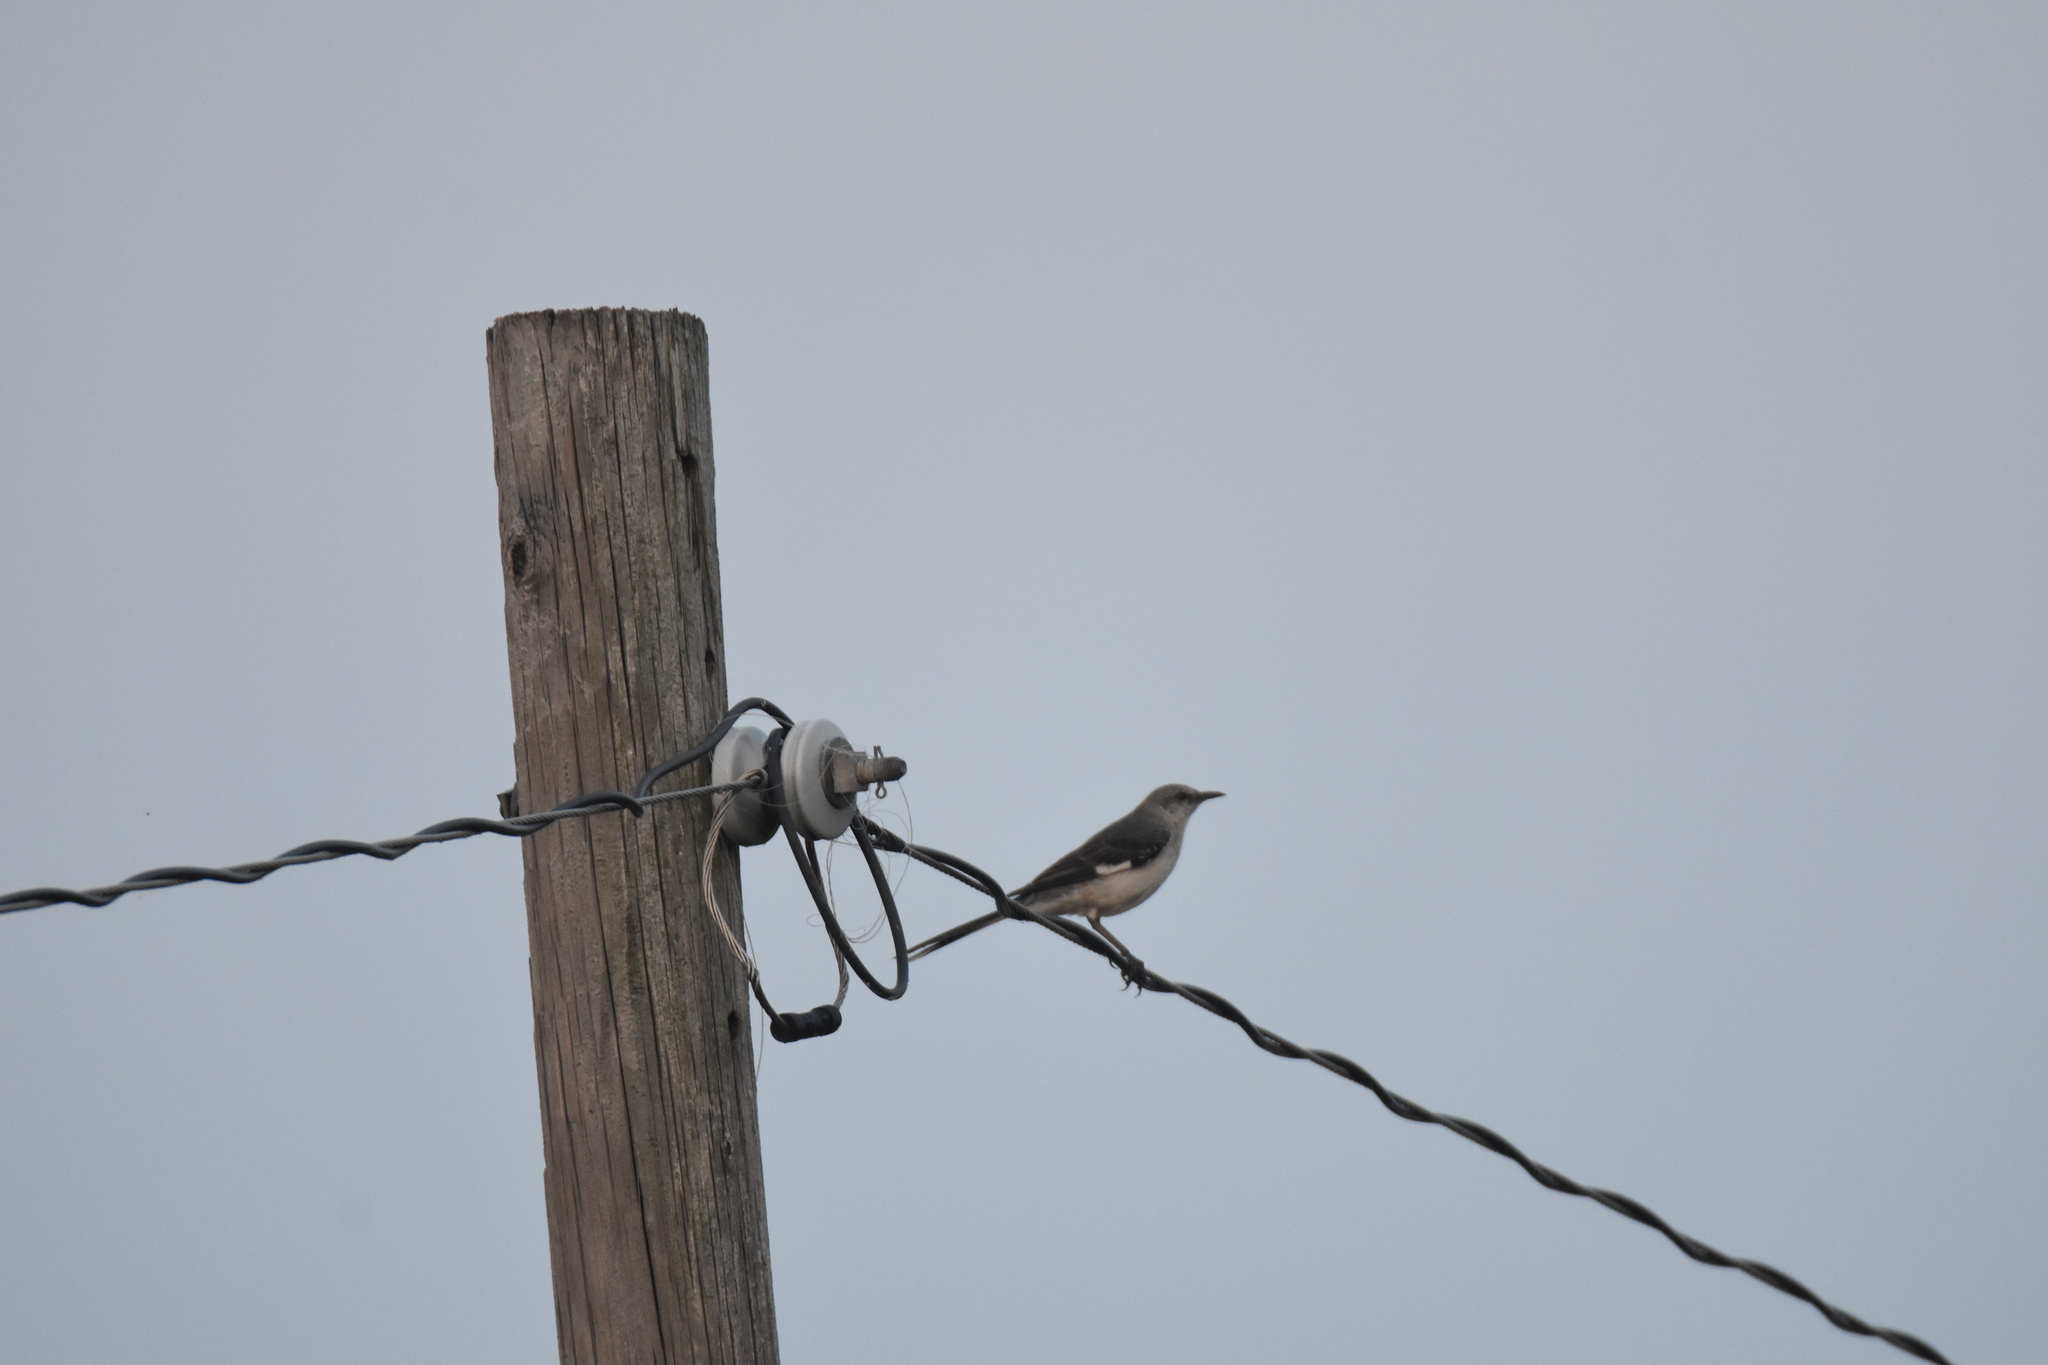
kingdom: Animalia
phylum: Chordata
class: Aves
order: Passeriformes
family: Mimidae
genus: Mimus
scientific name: Mimus polyglottos
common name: Northern mockingbird
